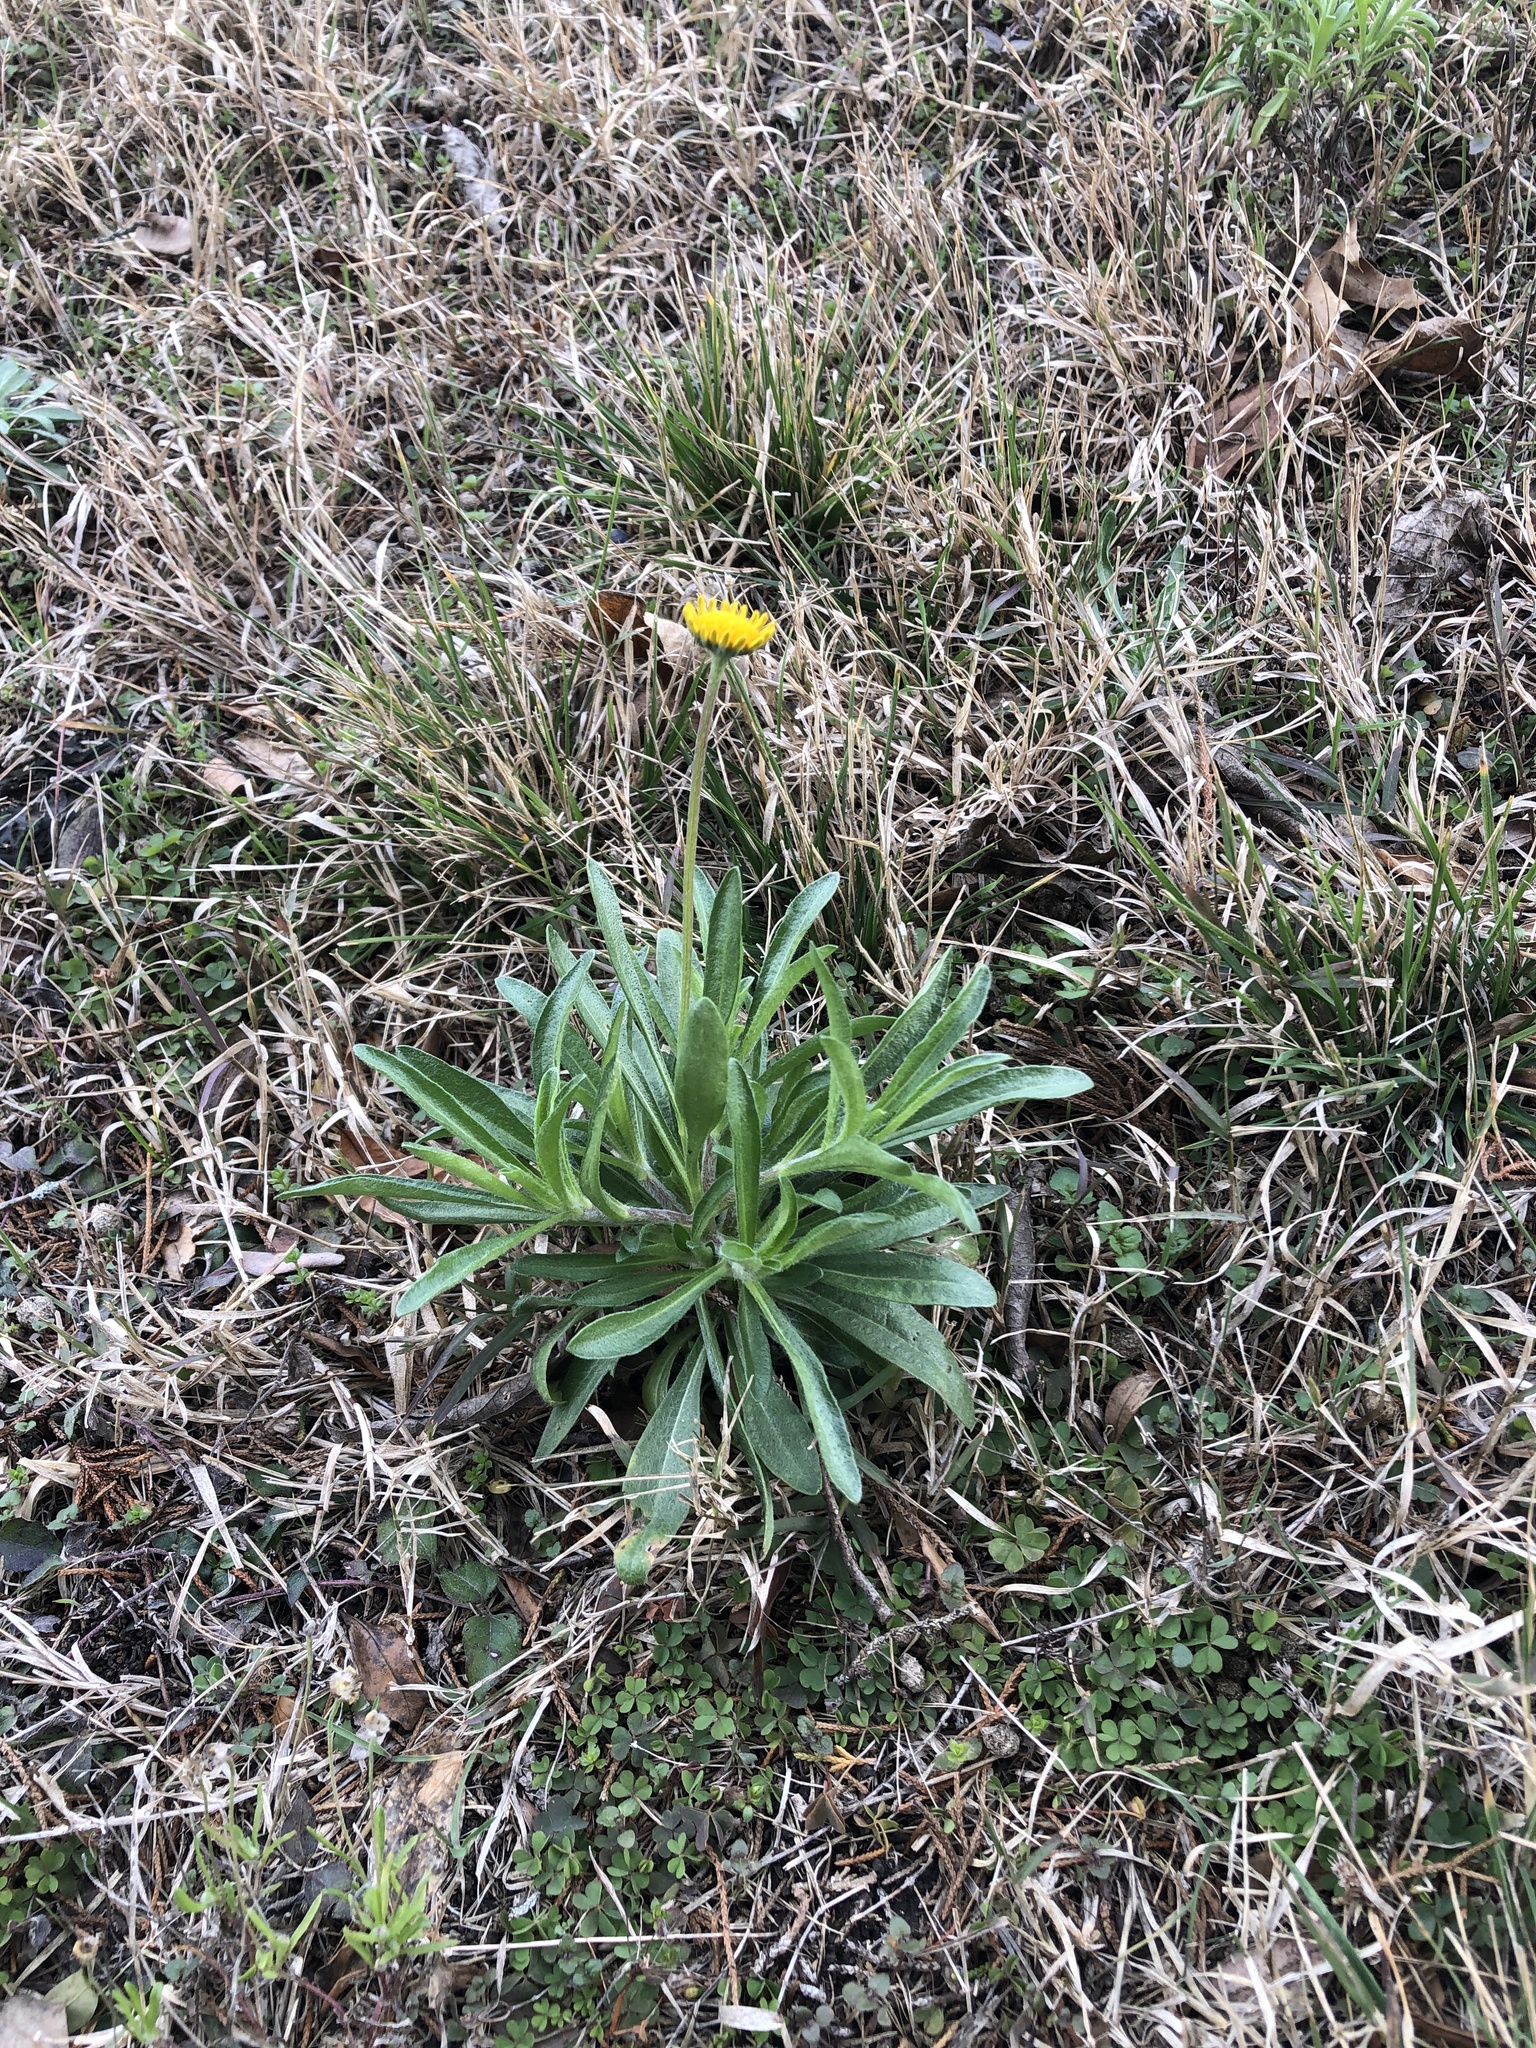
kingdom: Plantae
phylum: Tracheophyta
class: Magnoliopsida
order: Asterales
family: Asteraceae
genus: Tetraneuris
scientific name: Tetraneuris scaposa
